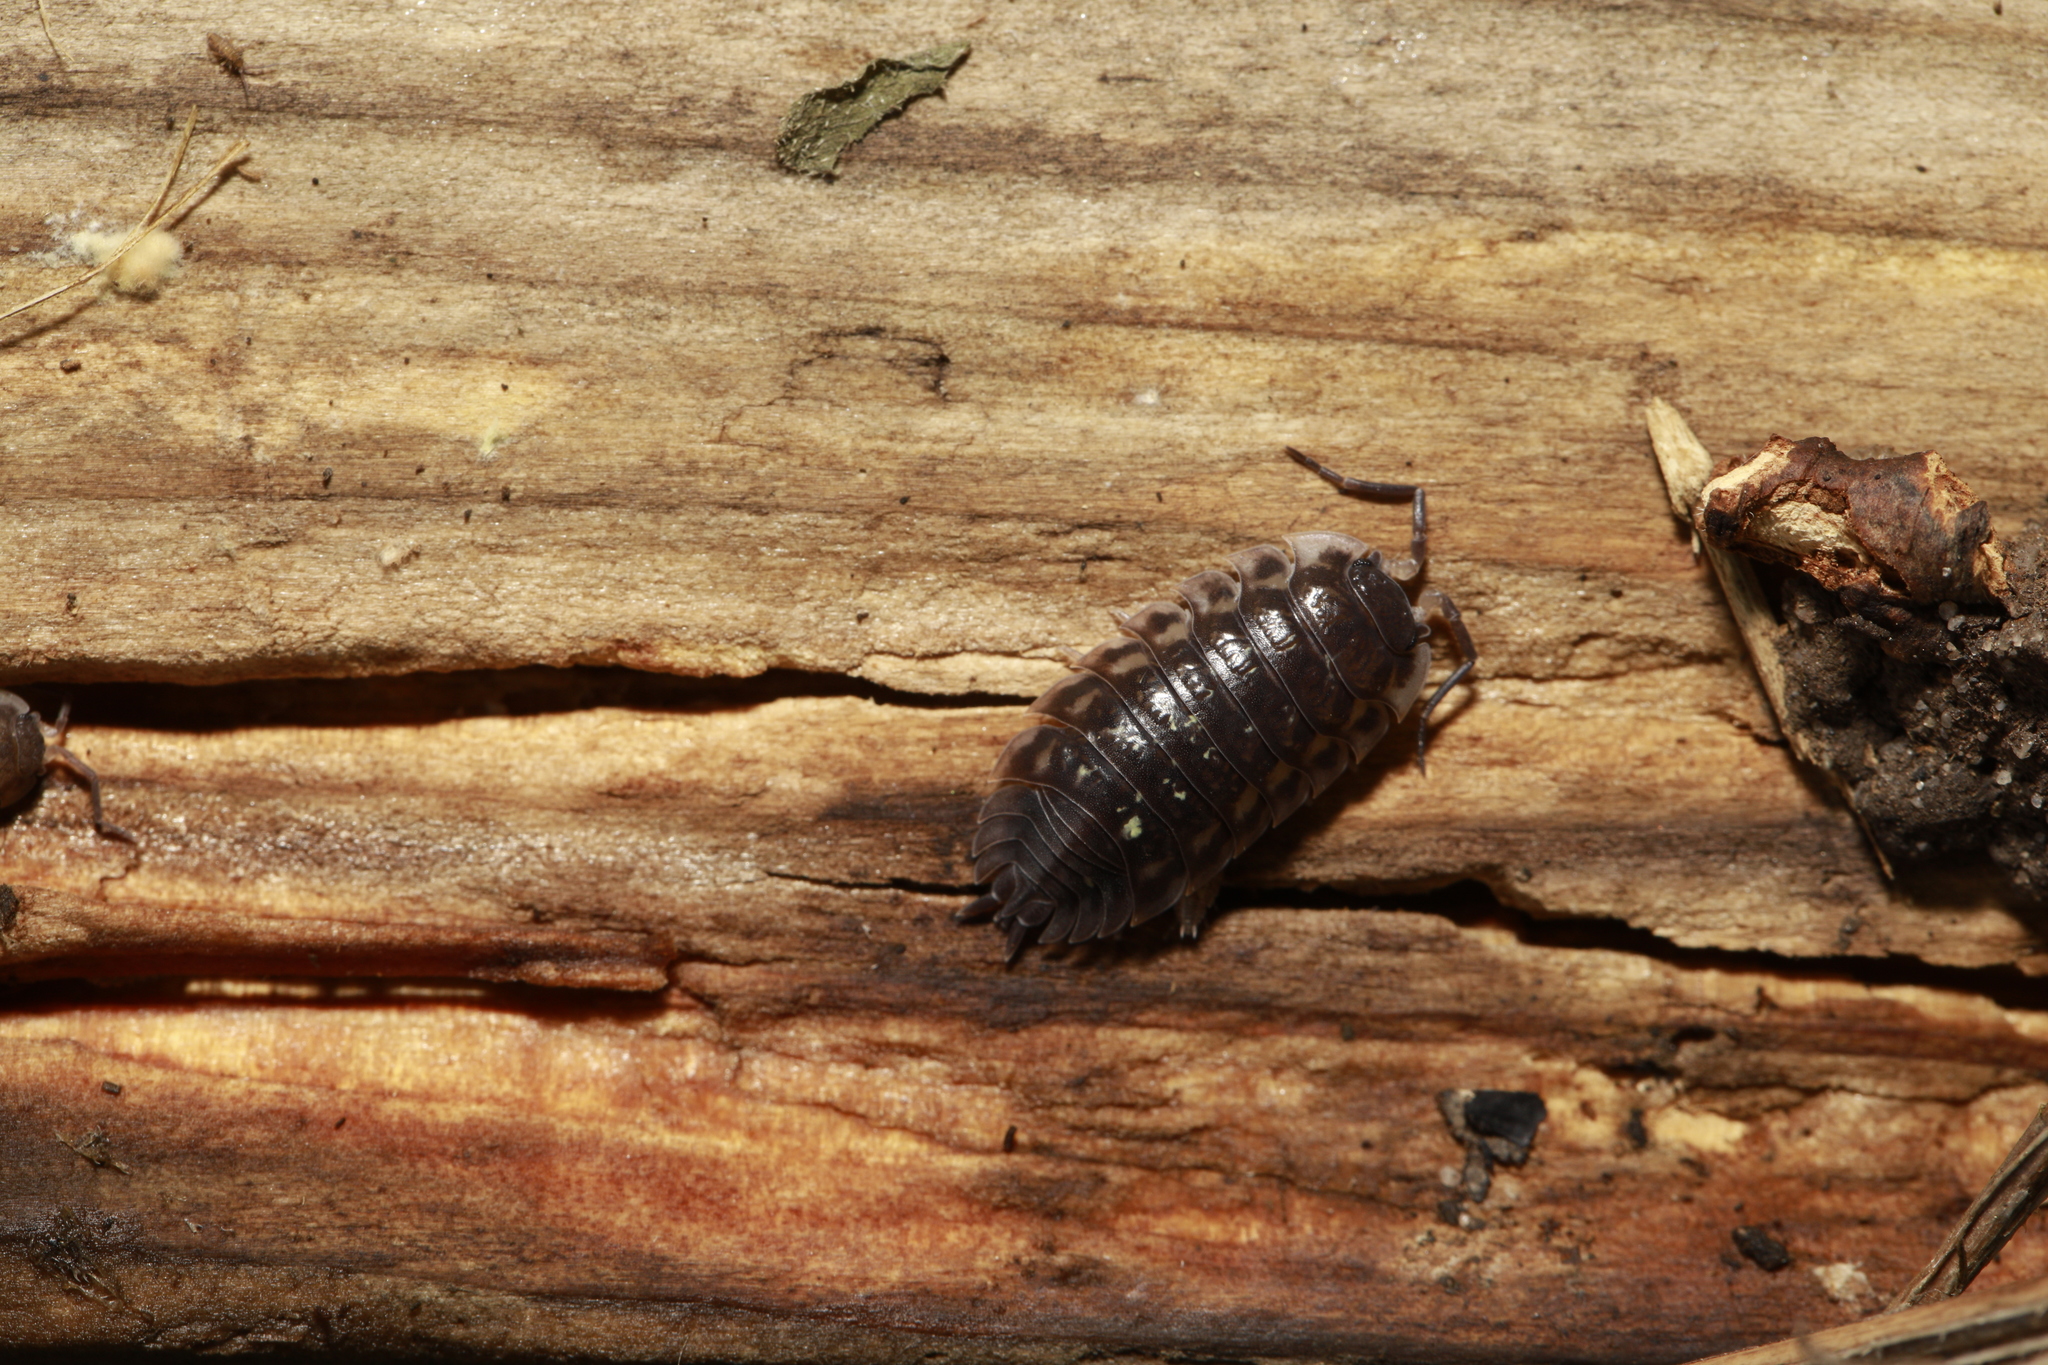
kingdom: Animalia
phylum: Arthropoda
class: Malacostraca
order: Isopoda
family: Oniscidae
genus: Oniscus
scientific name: Oniscus asellus
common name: Common shiny woodlouse
